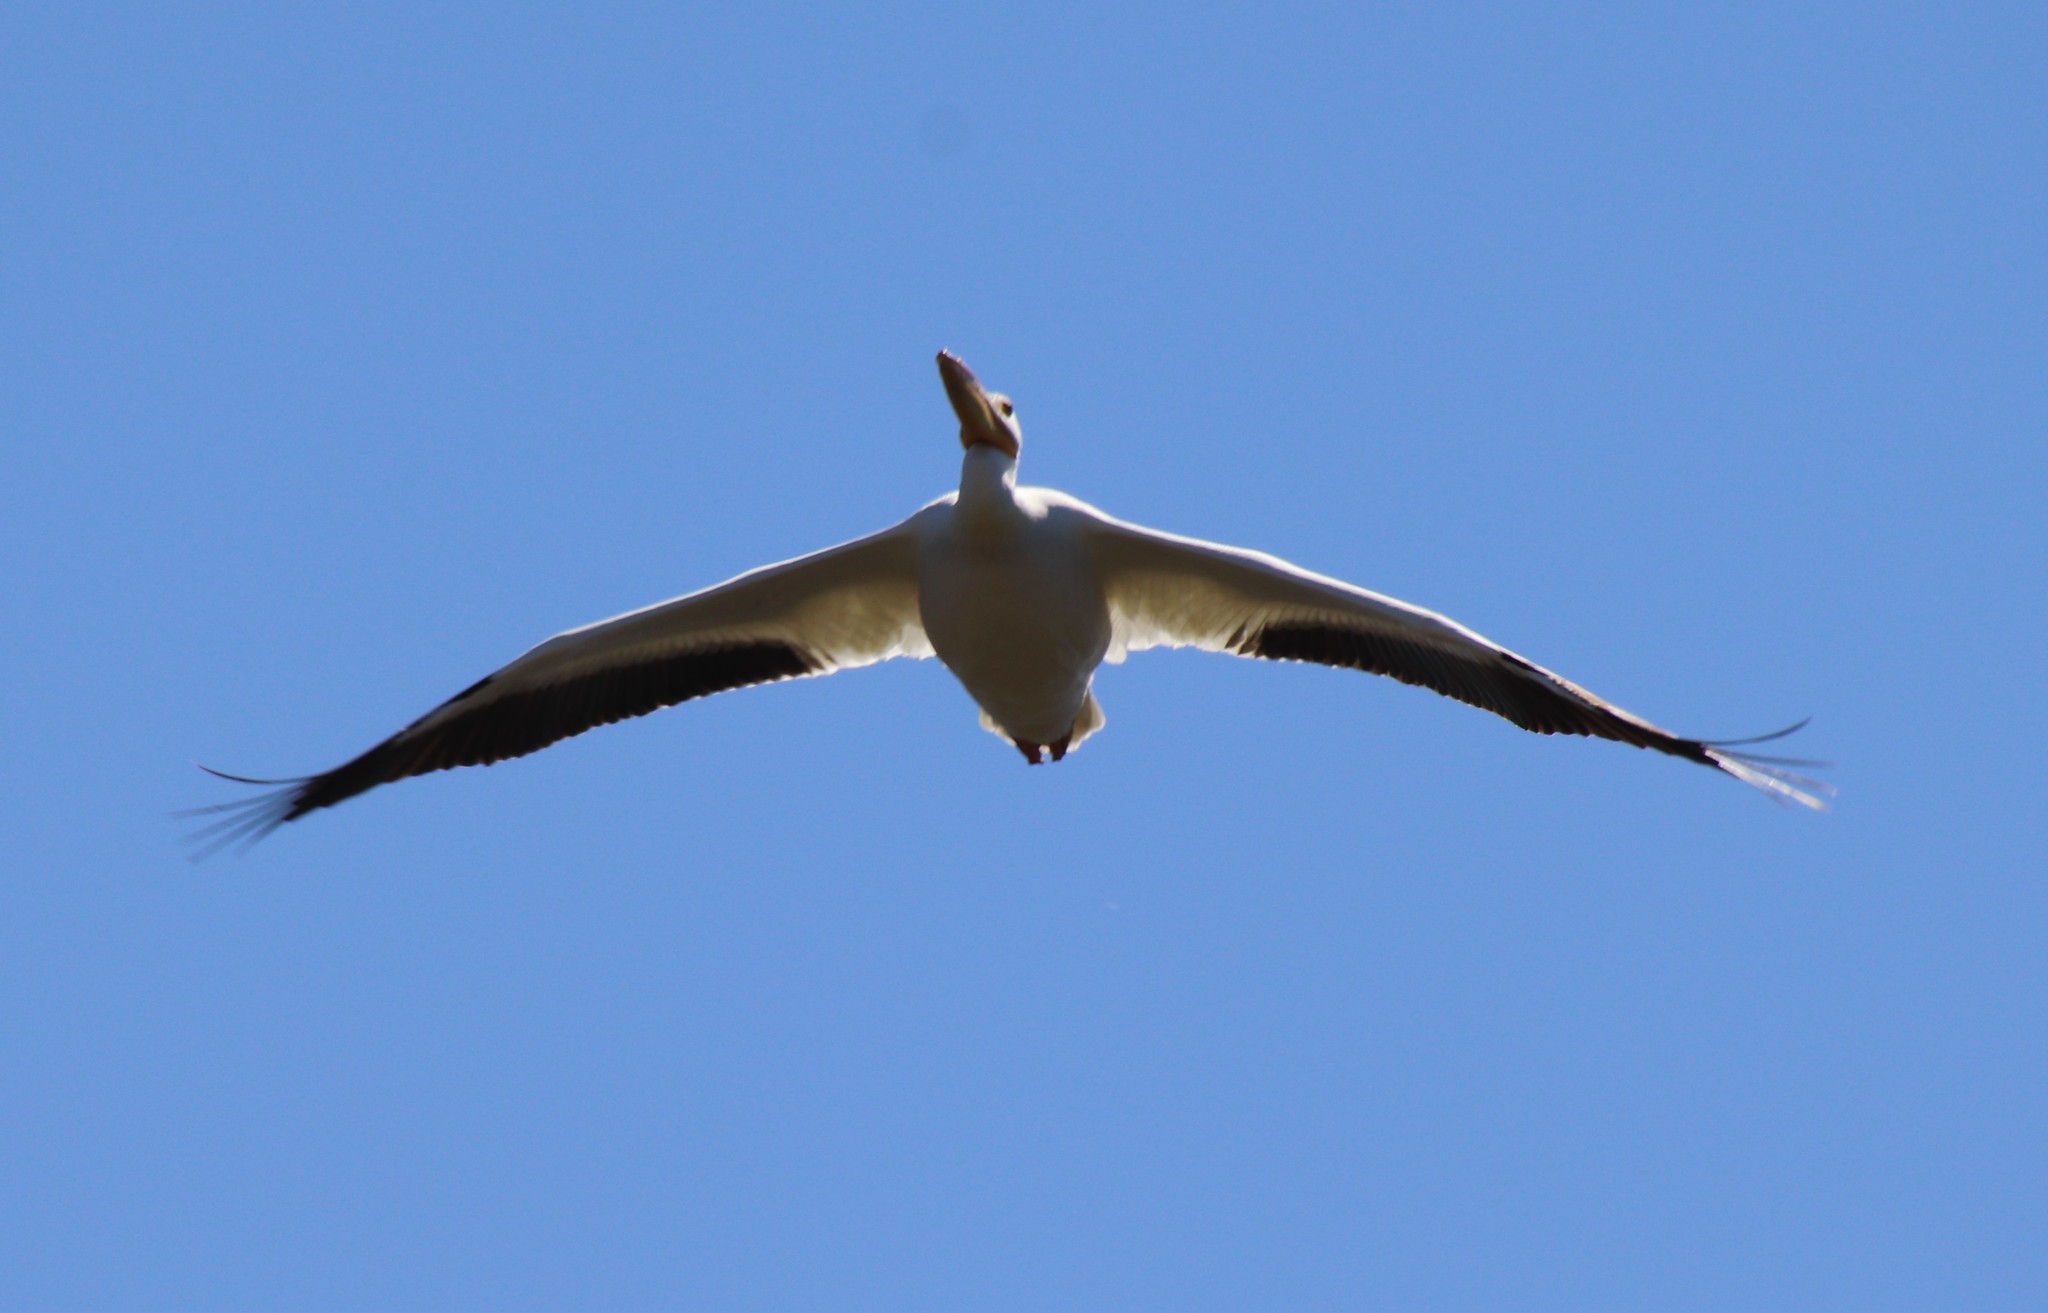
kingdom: Animalia
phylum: Chordata
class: Aves
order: Pelecaniformes
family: Pelecanidae
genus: Pelecanus
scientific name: Pelecanus erythrorhynchos
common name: American white pelican
